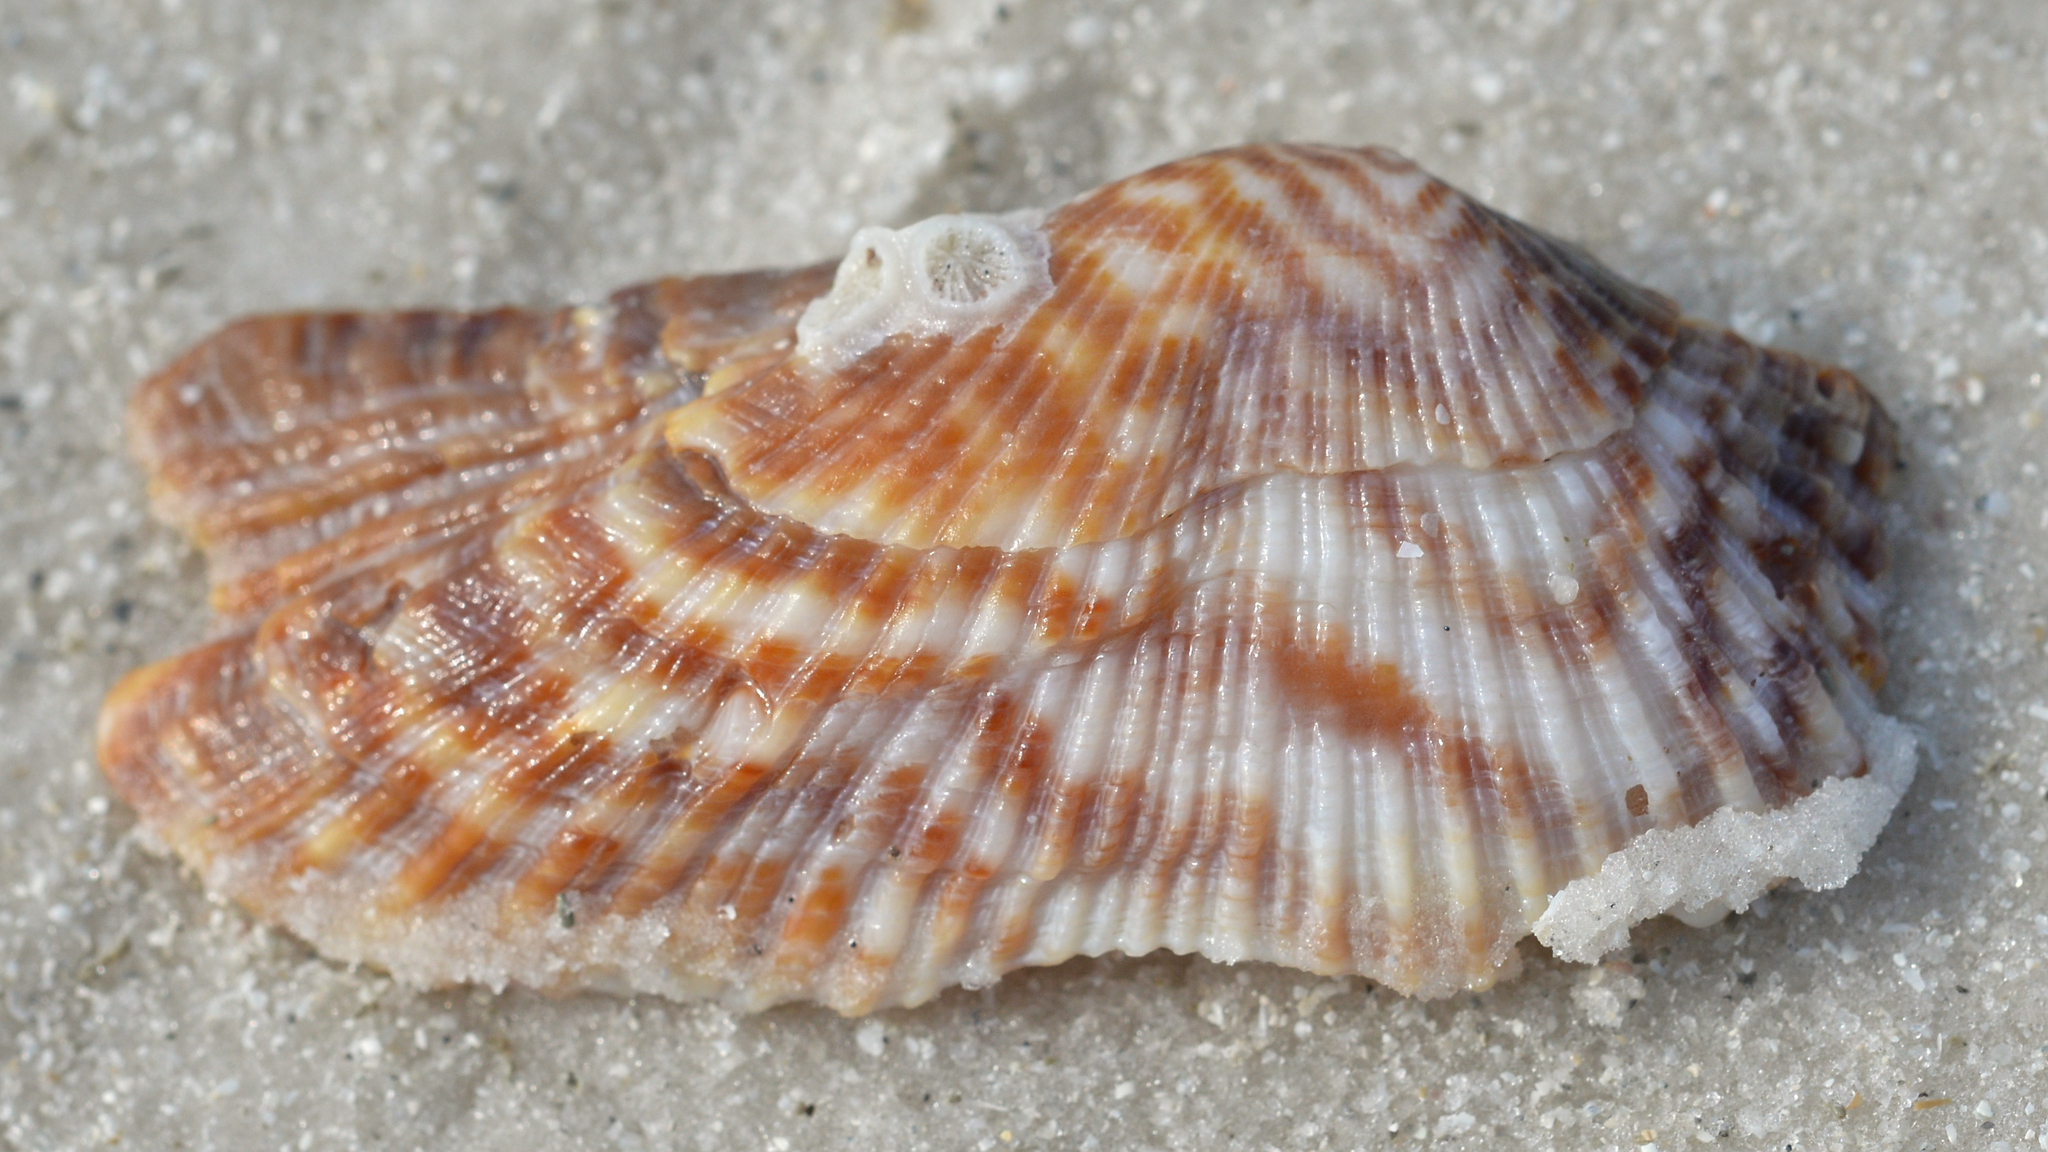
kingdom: Animalia
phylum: Mollusca
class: Bivalvia
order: Arcida
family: Arcidae
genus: Arca
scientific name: Arca zebra
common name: Atlantic turkey wing
